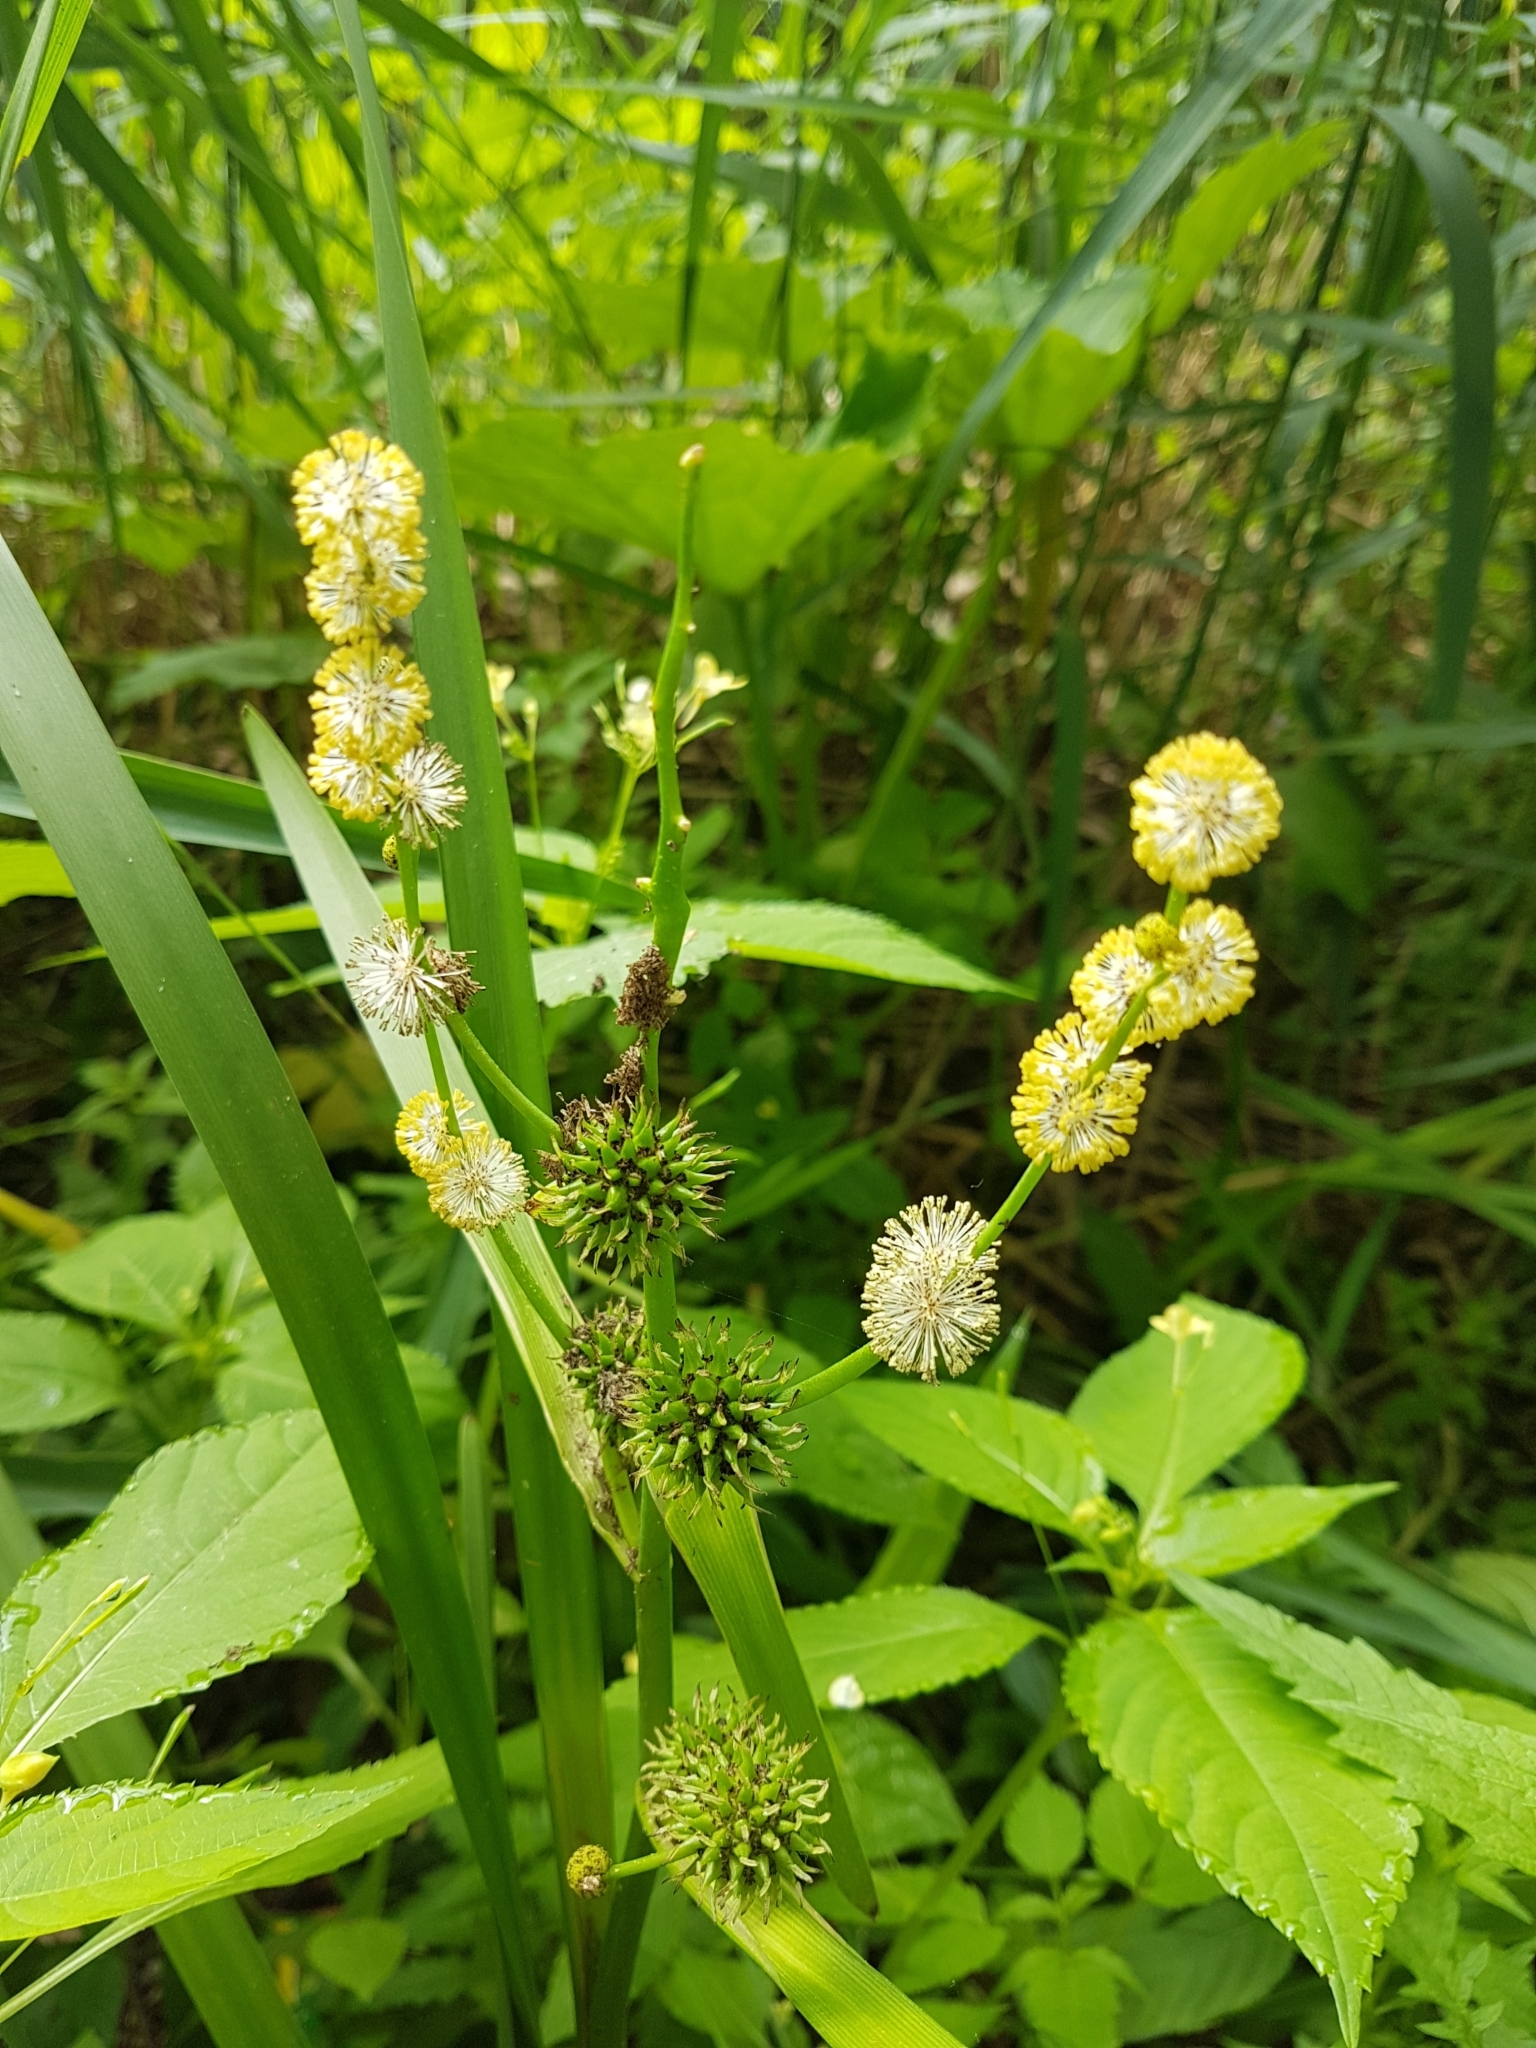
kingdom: Plantae
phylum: Tracheophyta
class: Liliopsida
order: Poales
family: Typhaceae
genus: Sparganium
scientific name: Sparganium erectum
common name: Branched bur-reed
